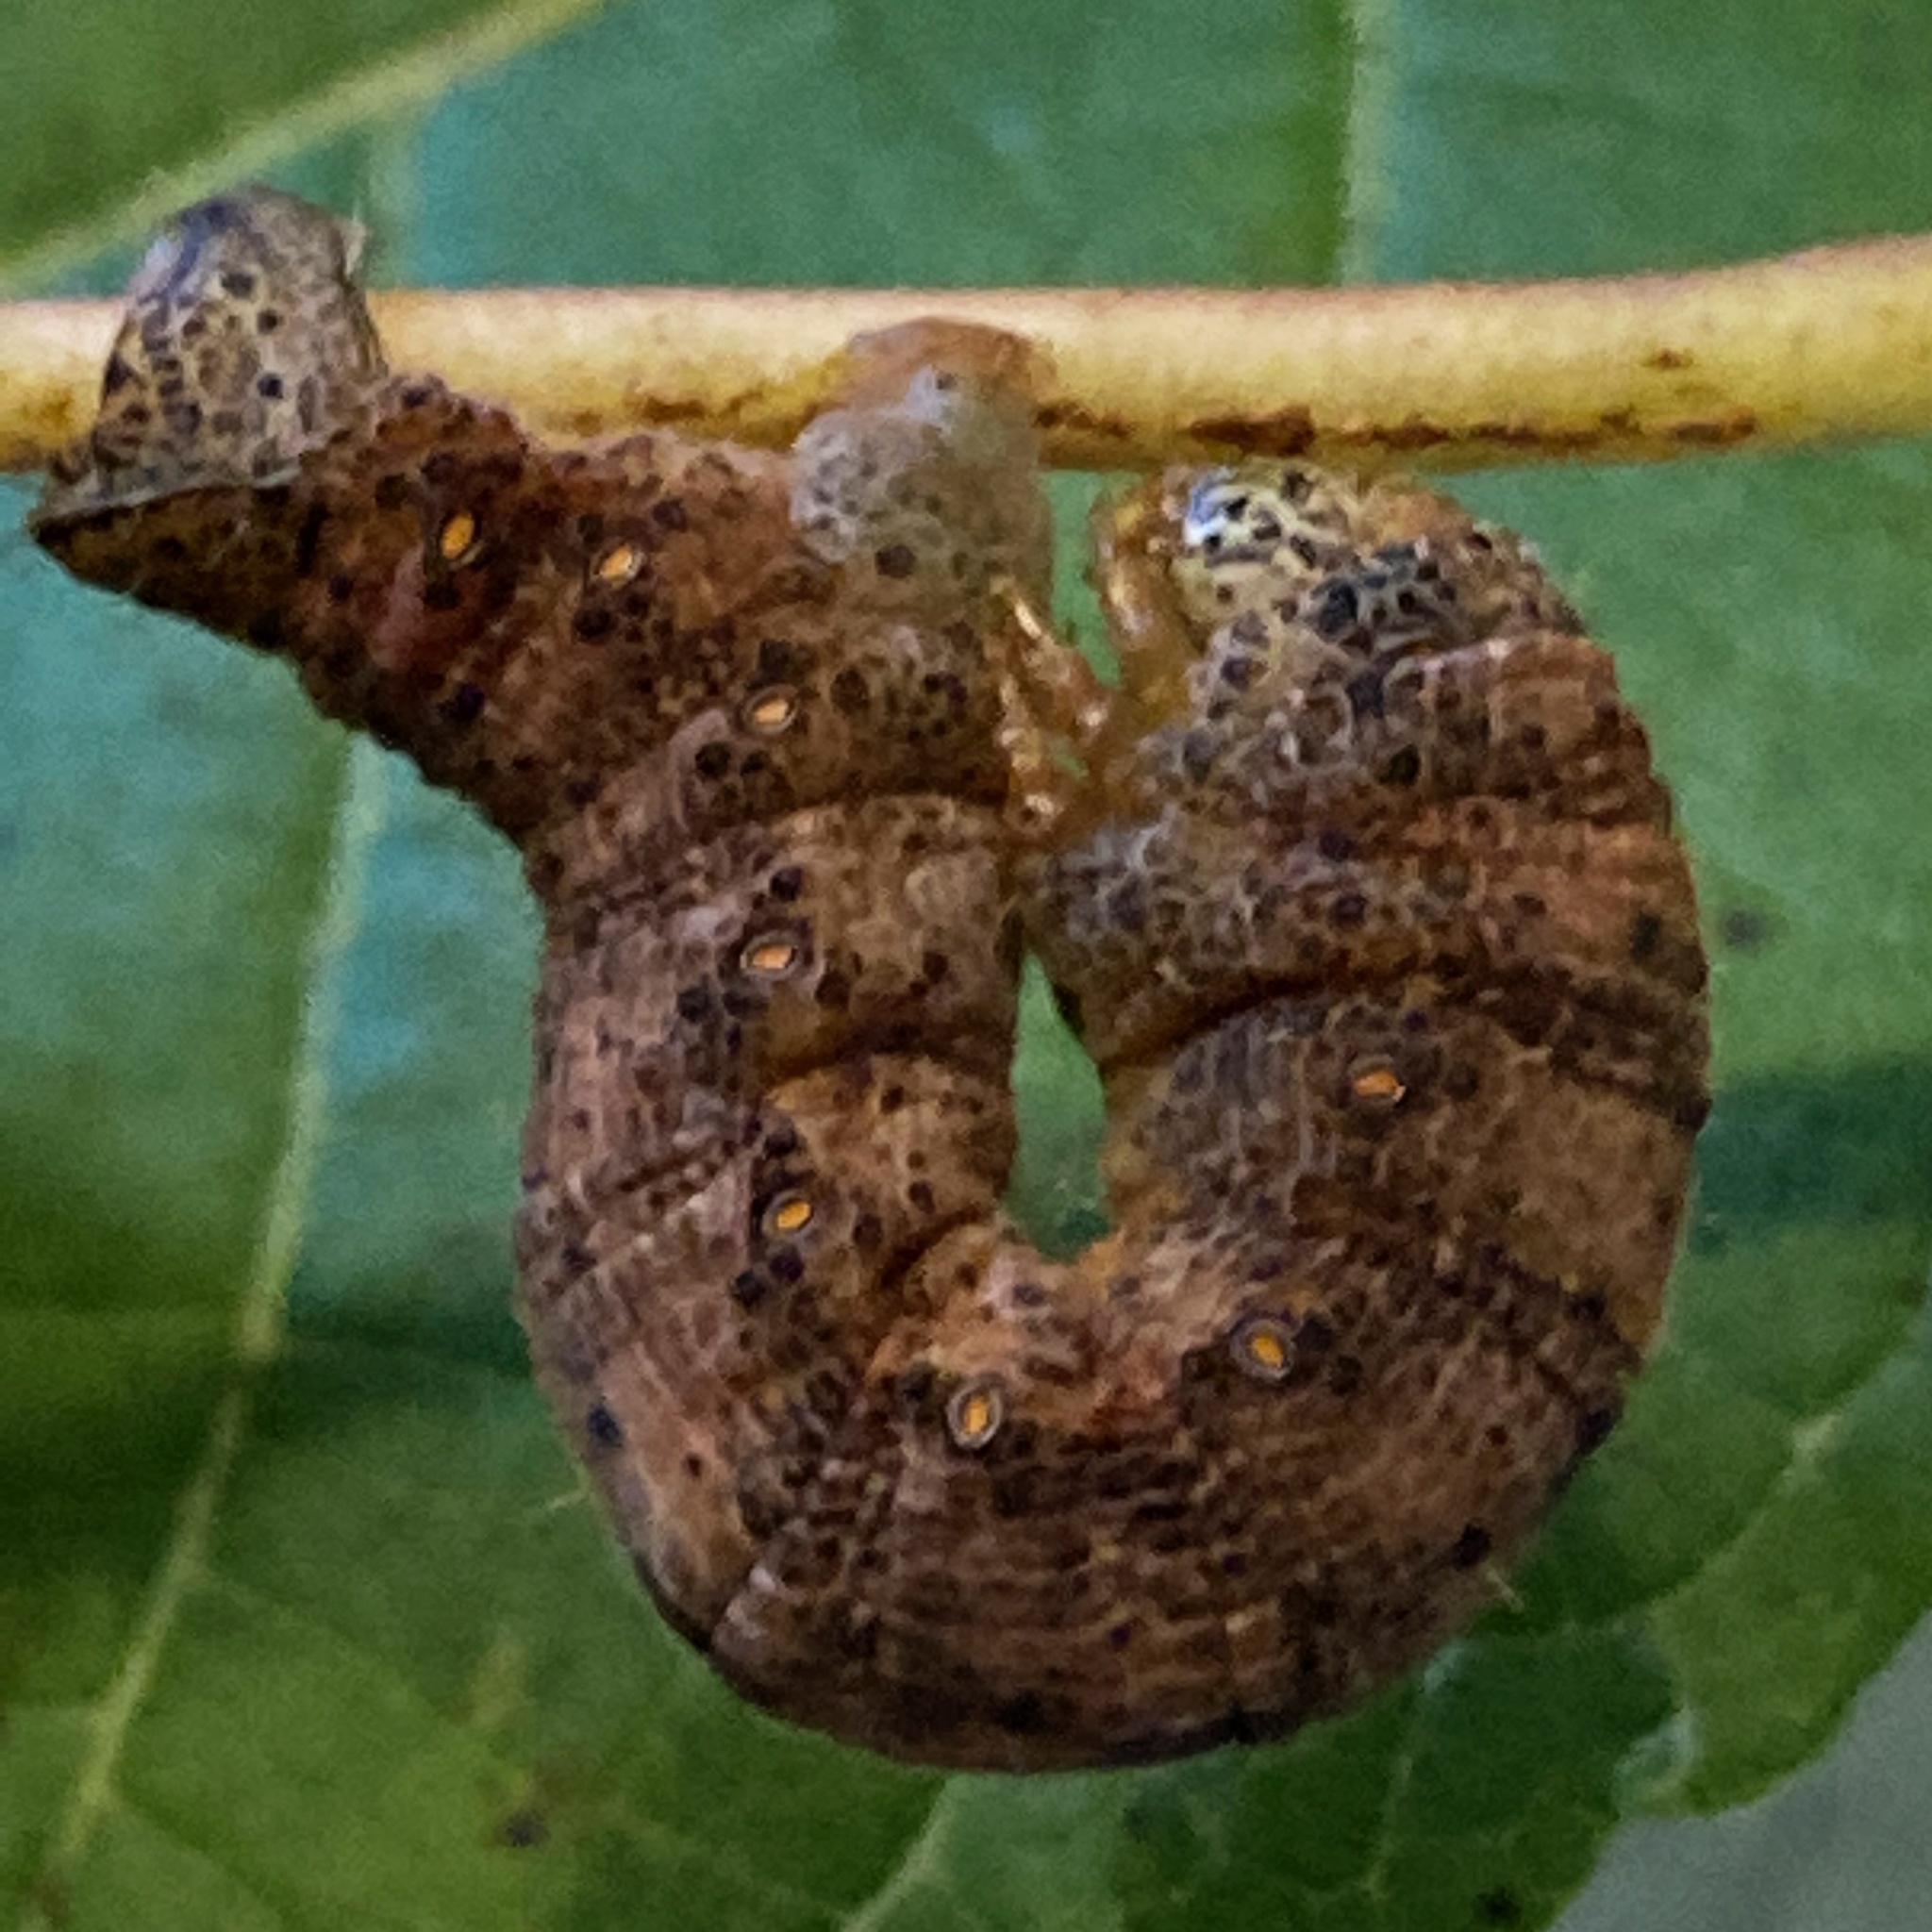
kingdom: Animalia
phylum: Arthropoda
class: Insecta
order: Lepidoptera
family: Geometridae
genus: Epimecis
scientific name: Epimecis hortaria
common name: Tulip-tree beauty
